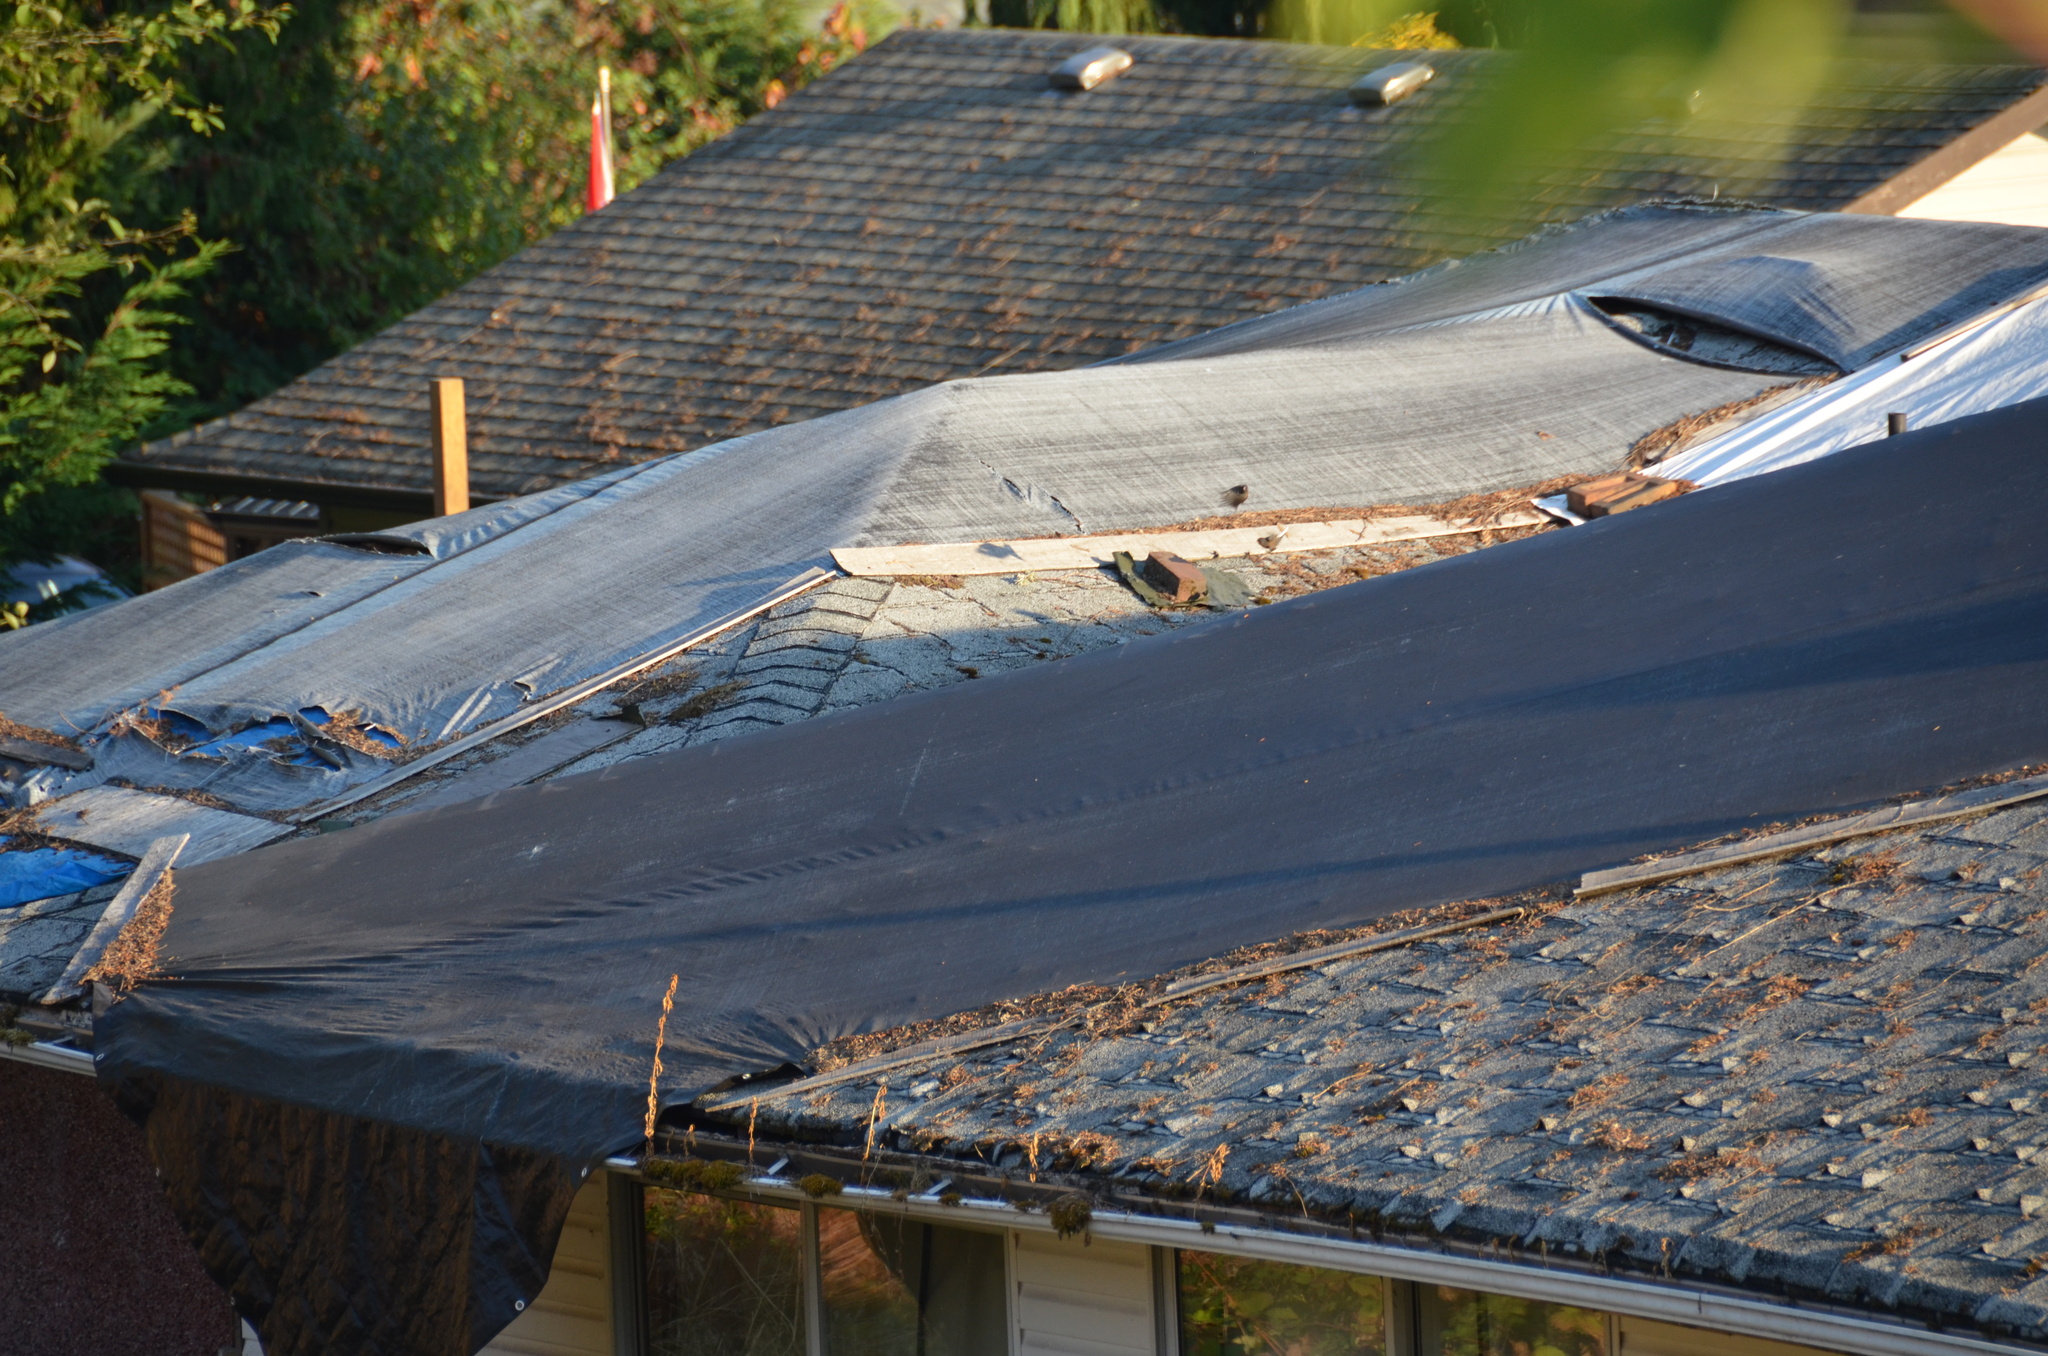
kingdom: Animalia
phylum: Chordata
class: Aves
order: Passeriformes
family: Passerellidae
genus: Junco
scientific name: Junco hyemalis
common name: Dark-eyed junco
